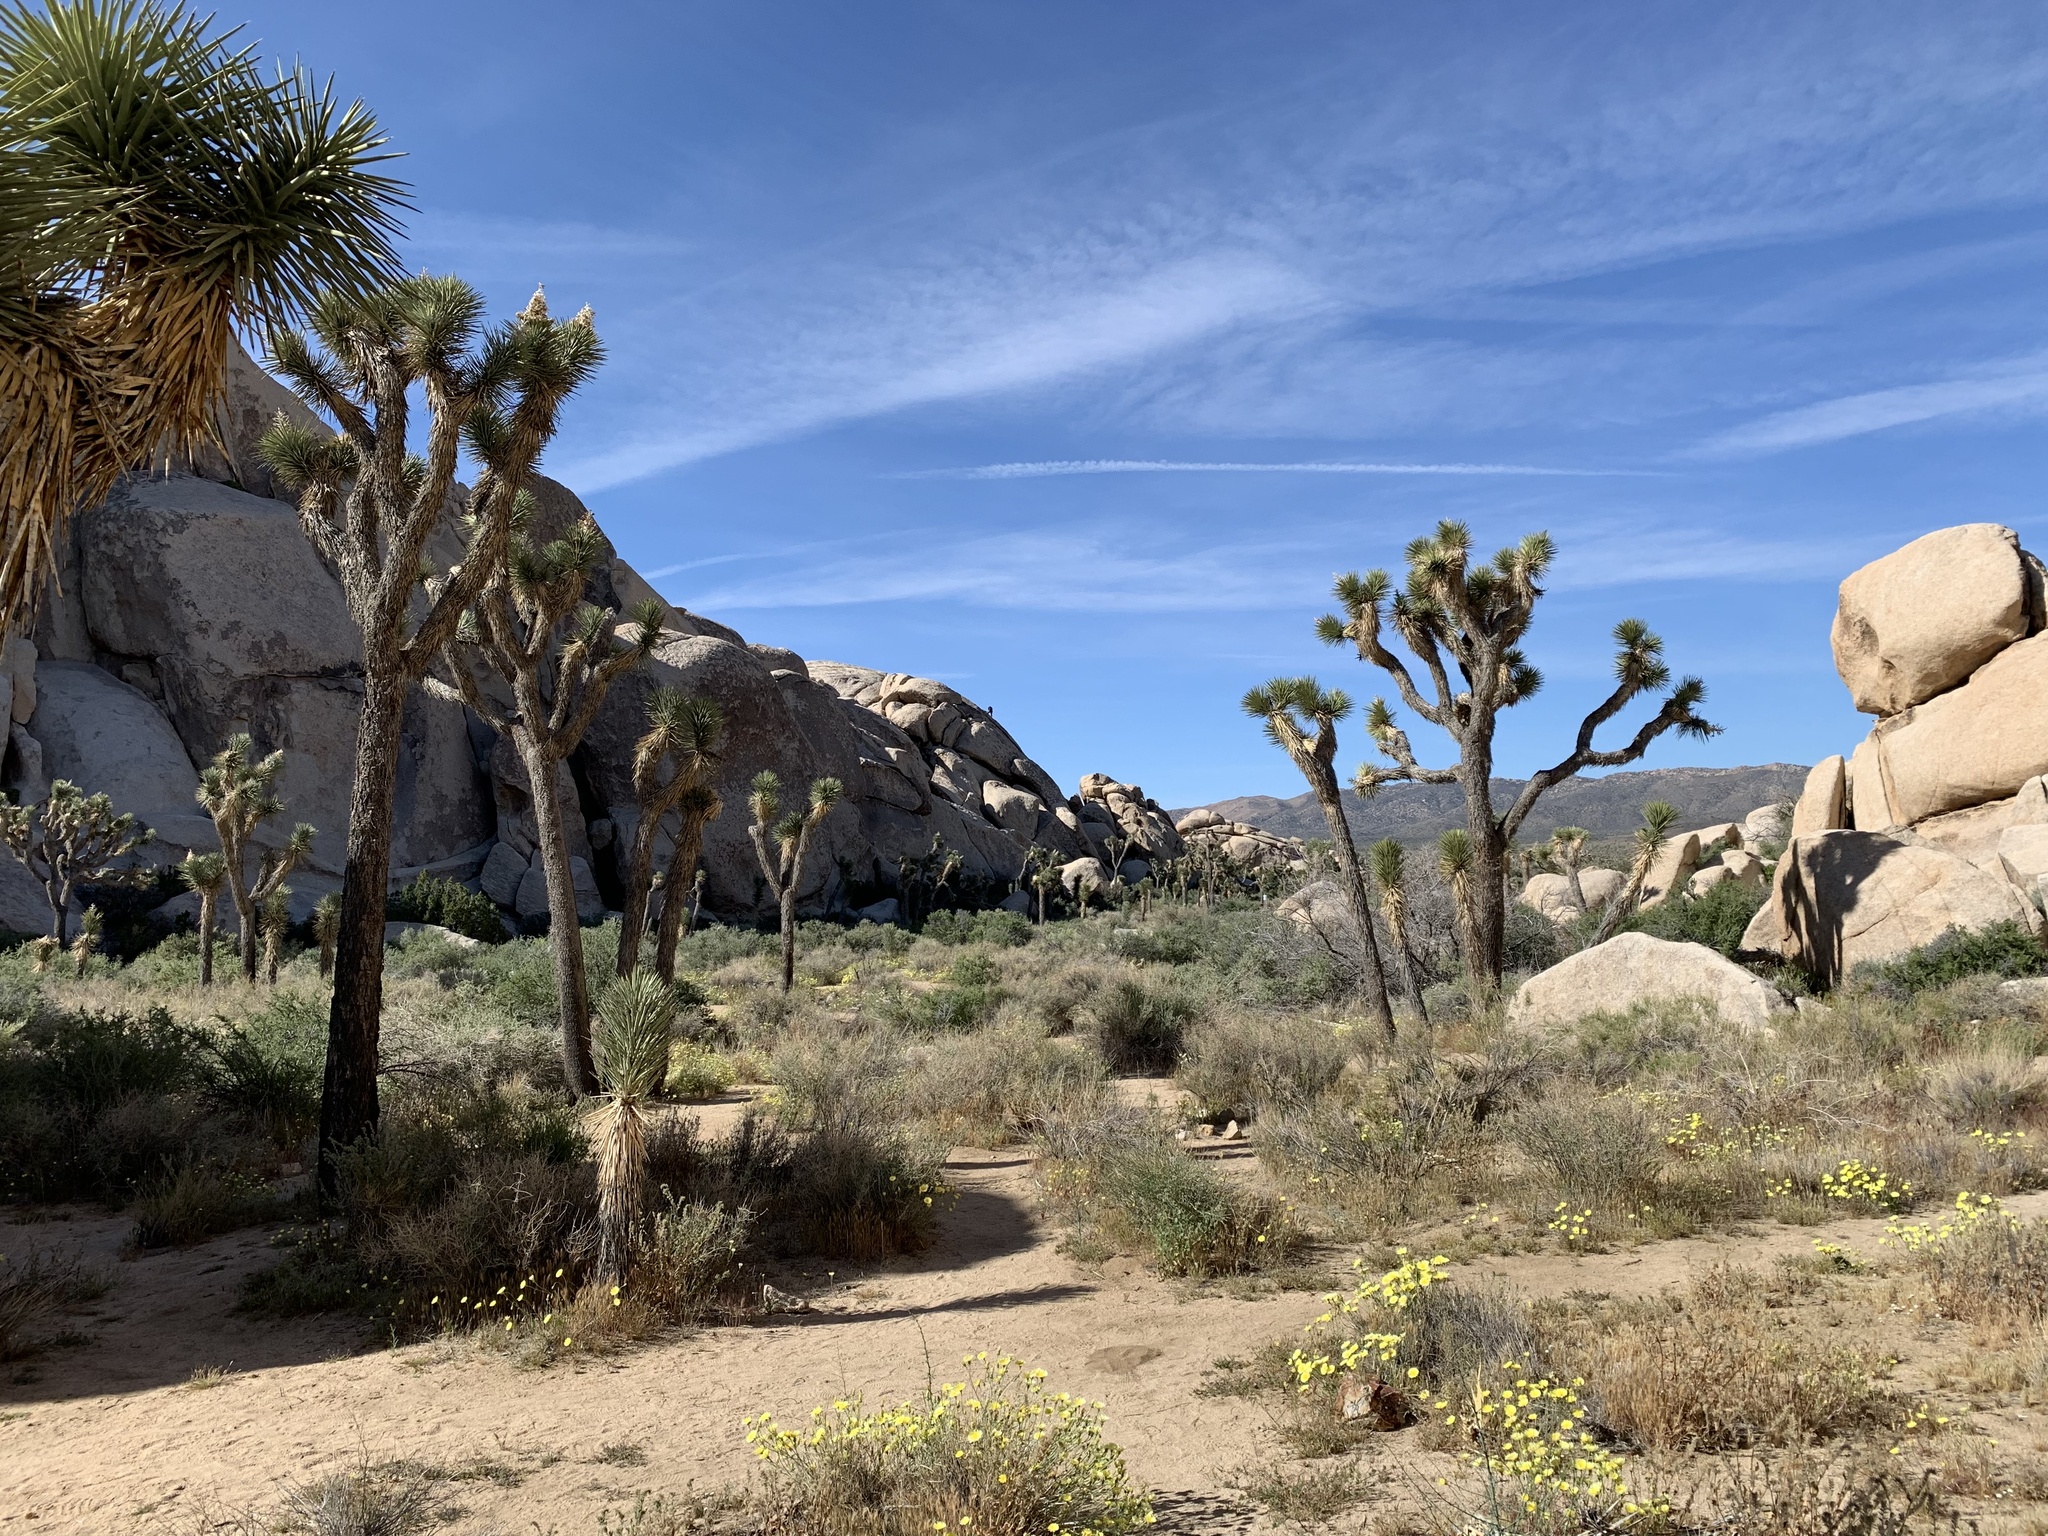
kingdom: Plantae
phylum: Tracheophyta
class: Liliopsida
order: Asparagales
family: Asparagaceae
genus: Yucca
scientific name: Yucca brevifolia
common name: Joshua tree
